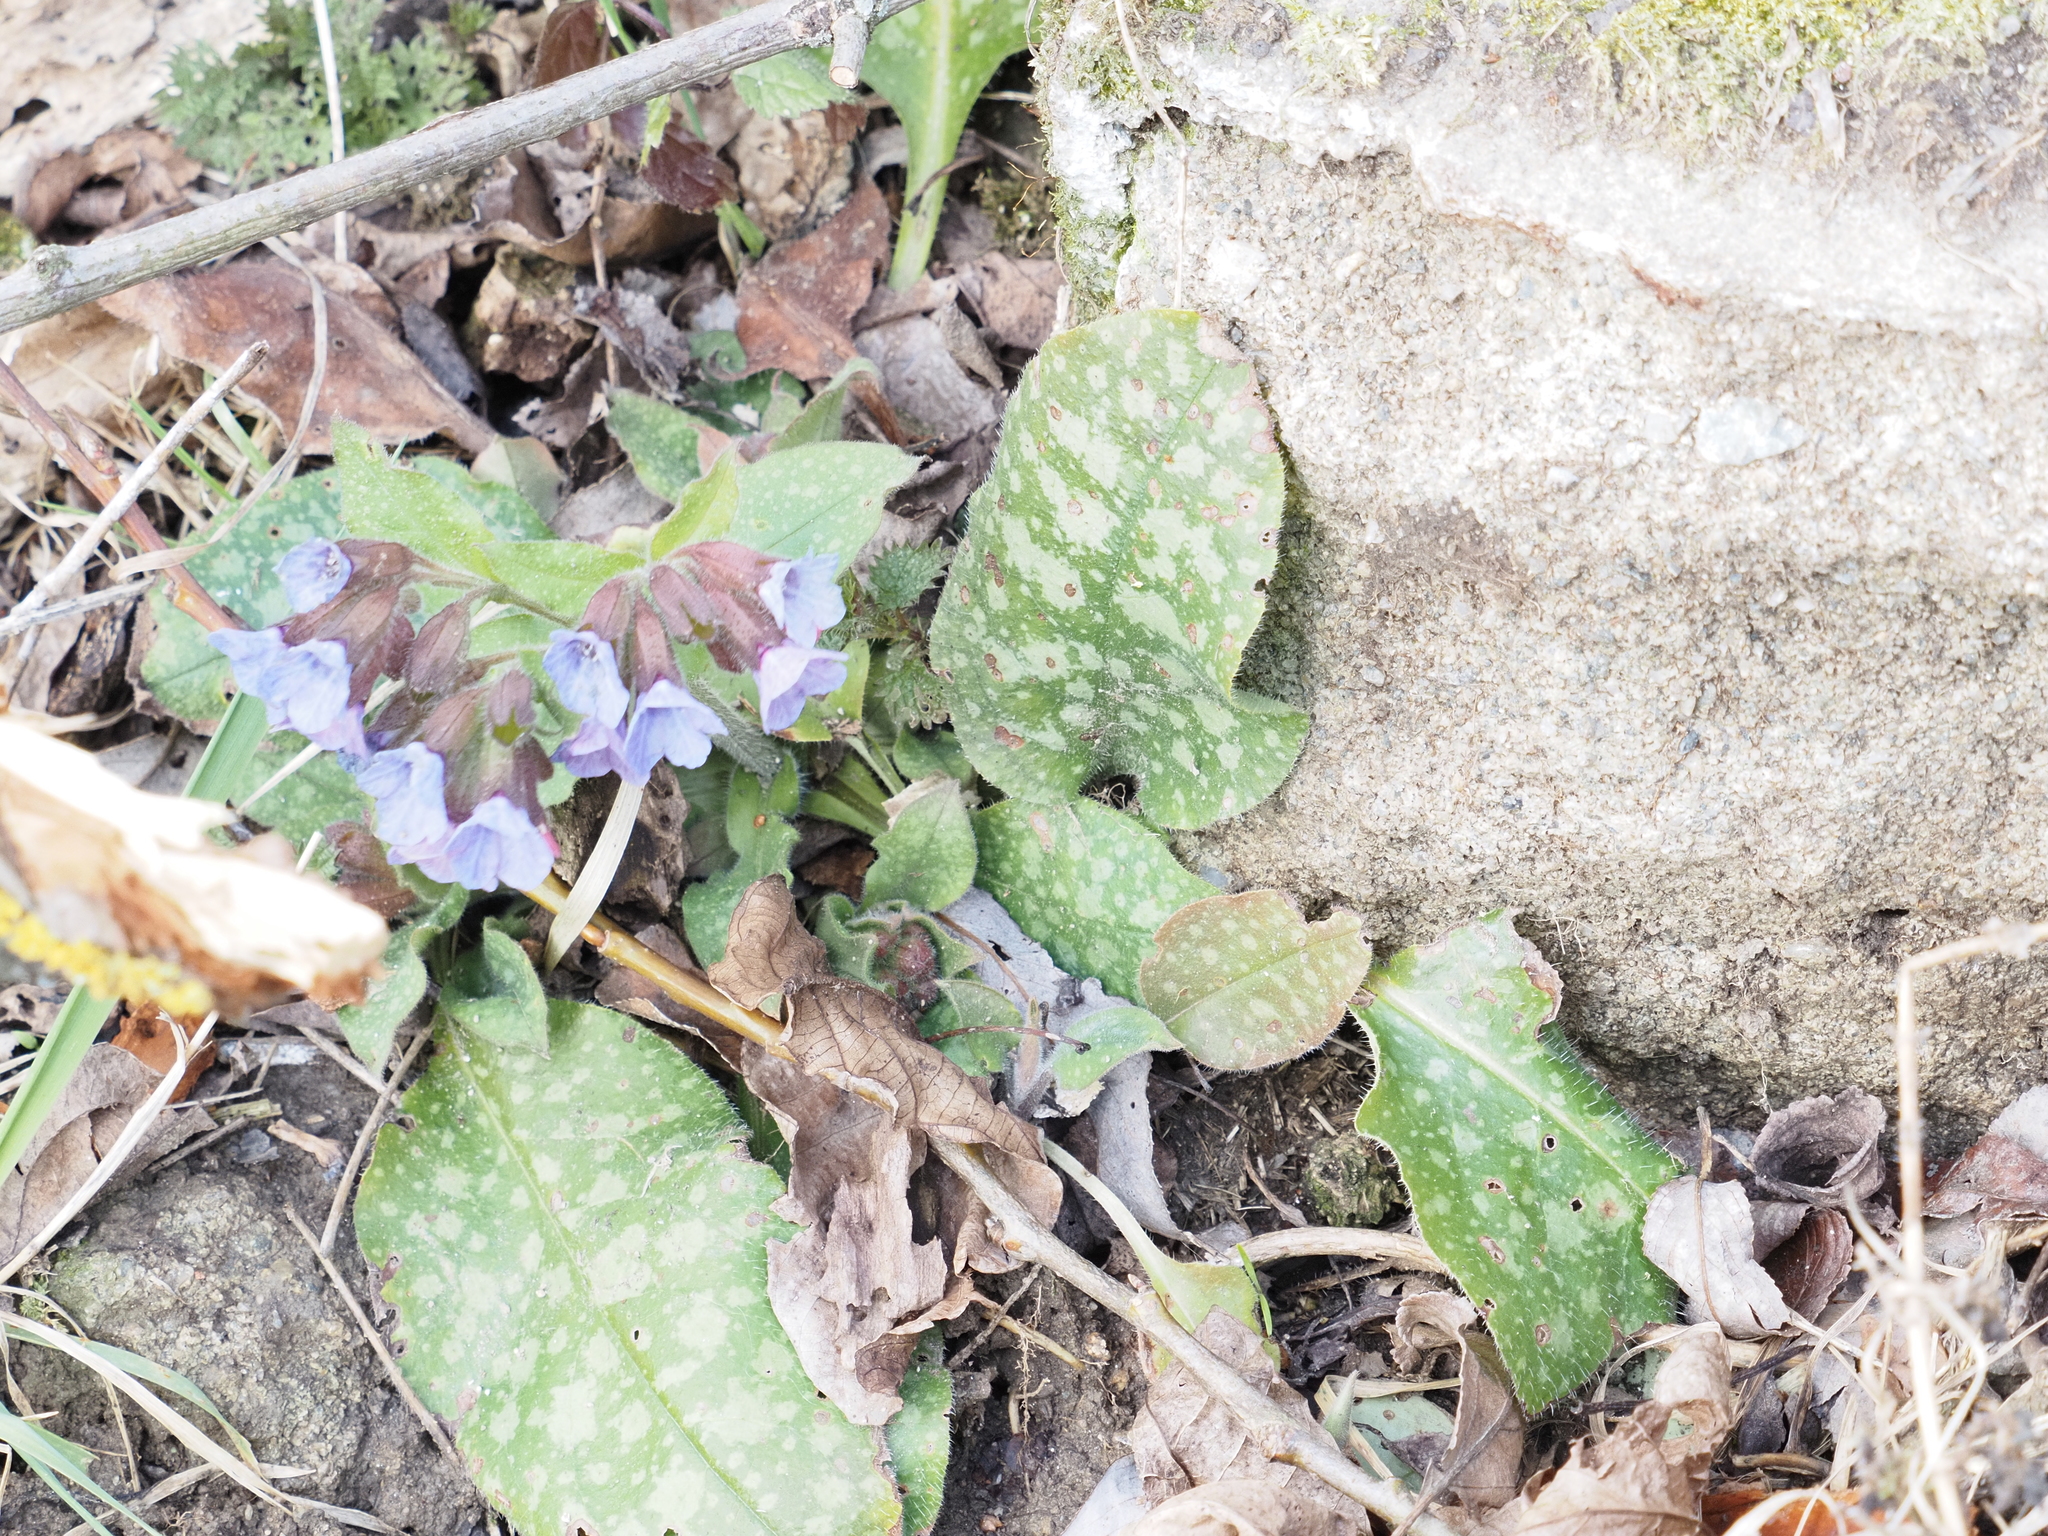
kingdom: Plantae
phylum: Tracheophyta
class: Magnoliopsida
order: Boraginales
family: Boraginaceae
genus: Pulmonaria
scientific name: Pulmonaria officinalis
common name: Lungwort
